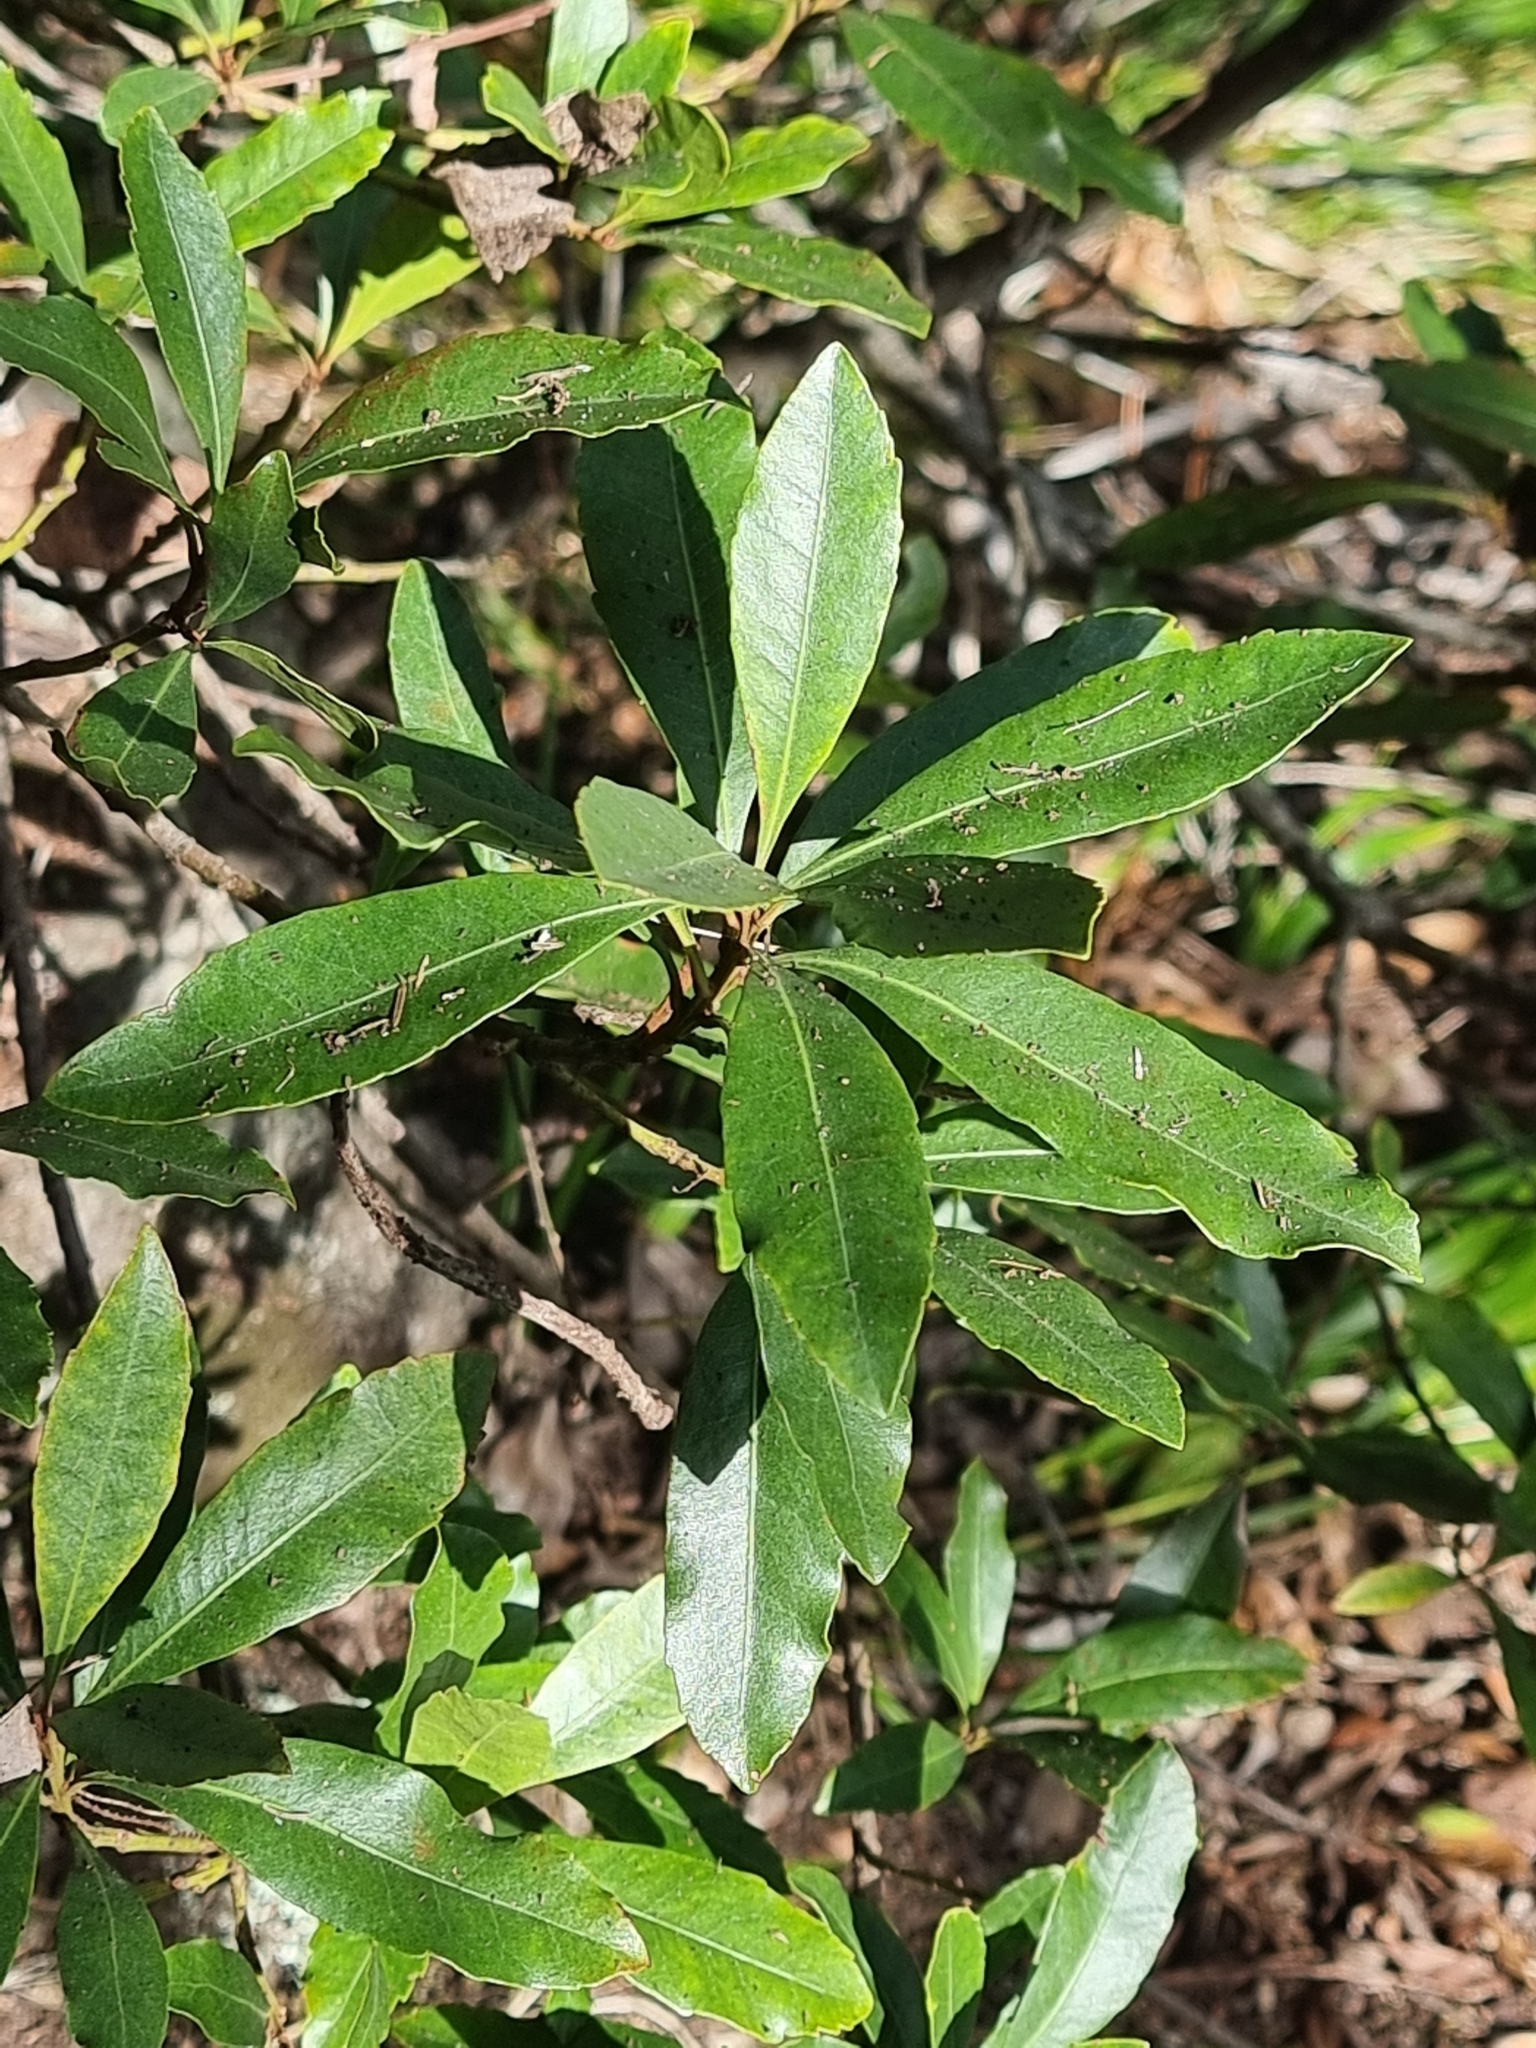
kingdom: Plantae
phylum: Tracheophyta
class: Magnoliopsida
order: Fagales
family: Myricaceae
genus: Morella
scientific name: Morella faya
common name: Firetree
